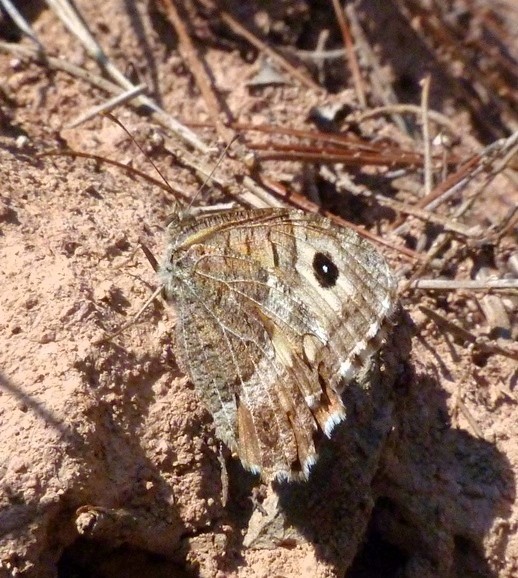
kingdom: Animalia
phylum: Arthropoda
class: Insecta
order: Lepidoptera
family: Nymphalidae
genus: Arethusana
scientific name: Arethusana arethusa
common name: False grayling
